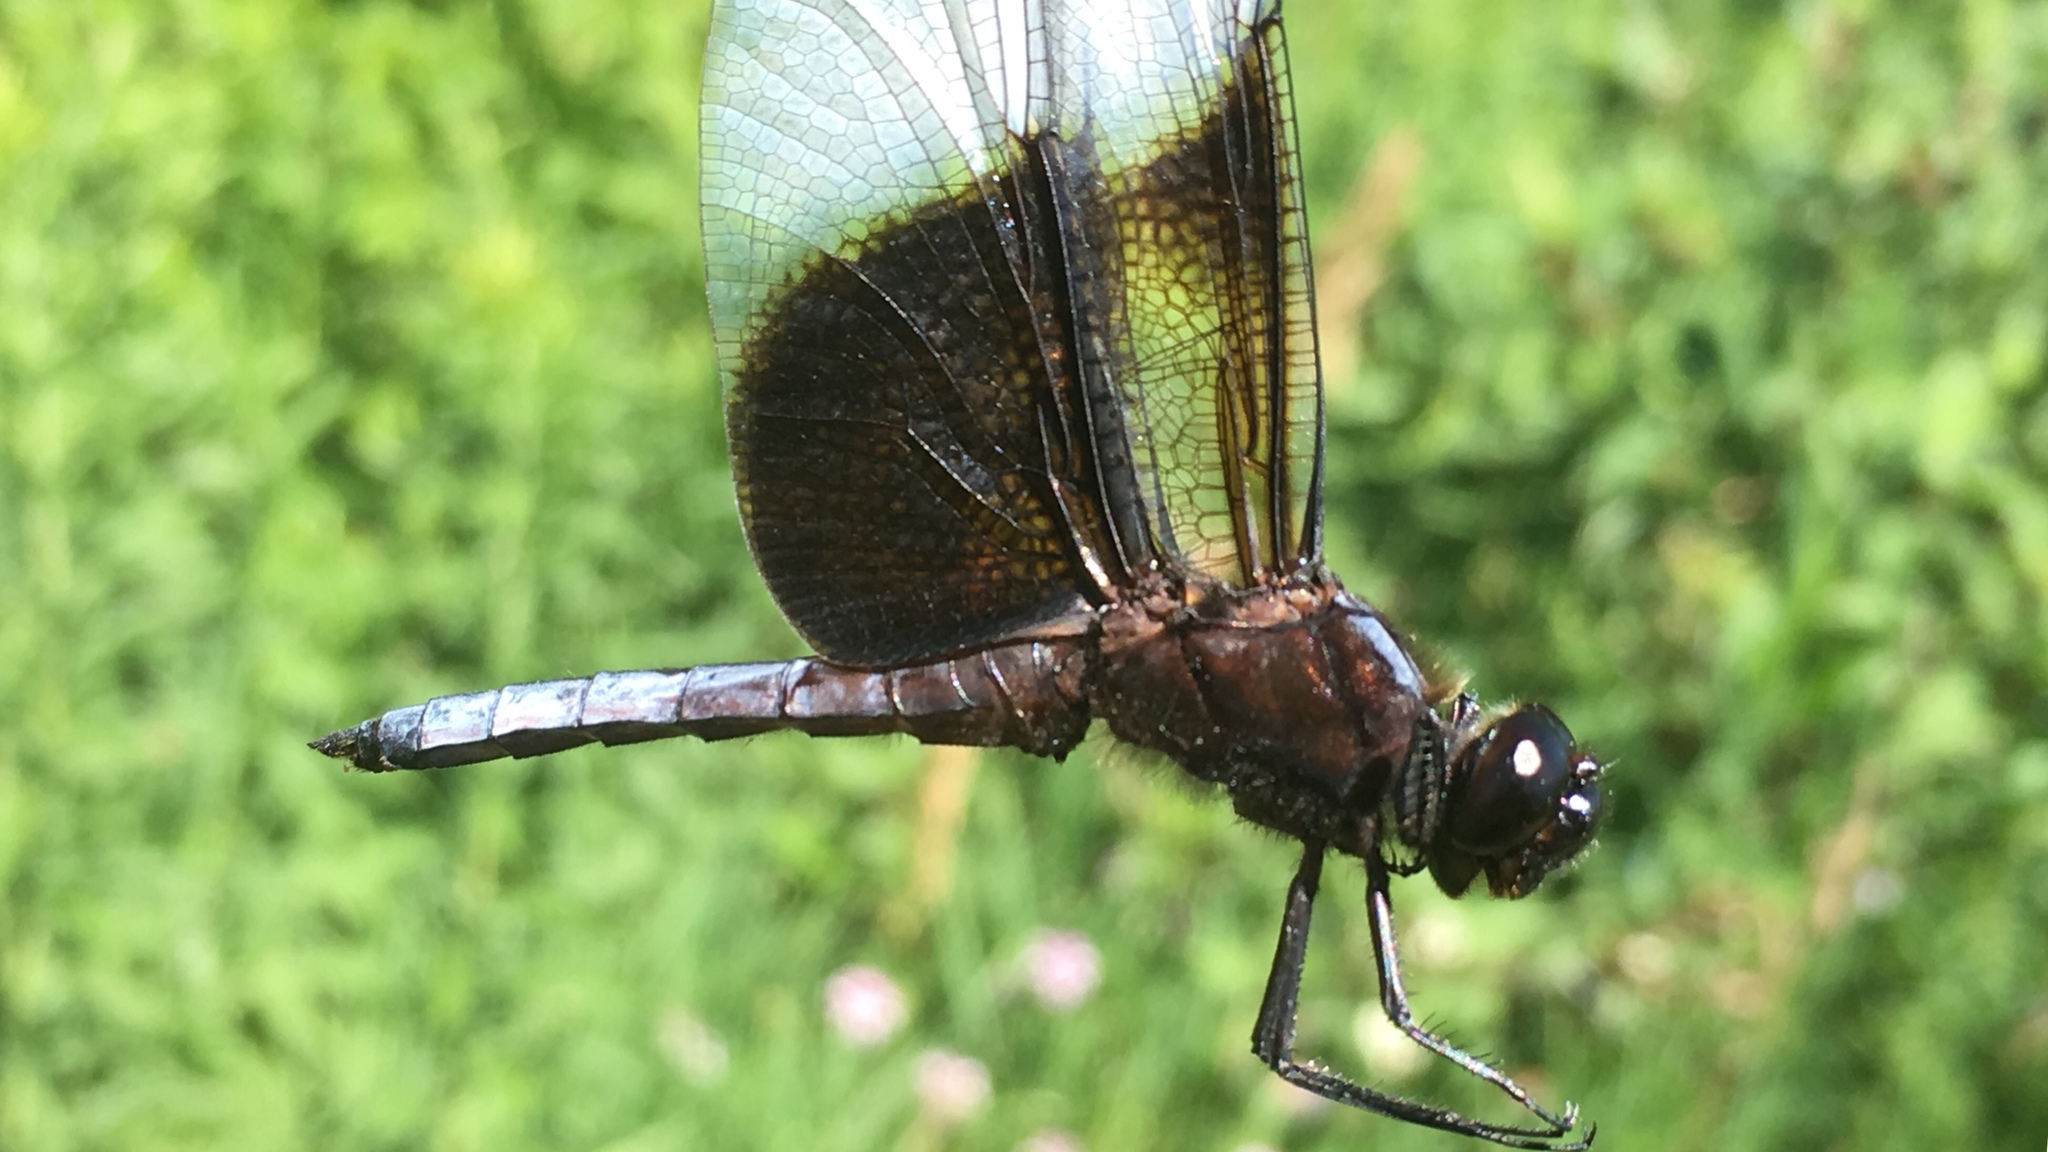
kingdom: Animalia
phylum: Arthropoda
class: Insecta
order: Odonata
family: Libellulidae
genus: Libellula
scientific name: Libellula luctuosa
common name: Widow skimmer
